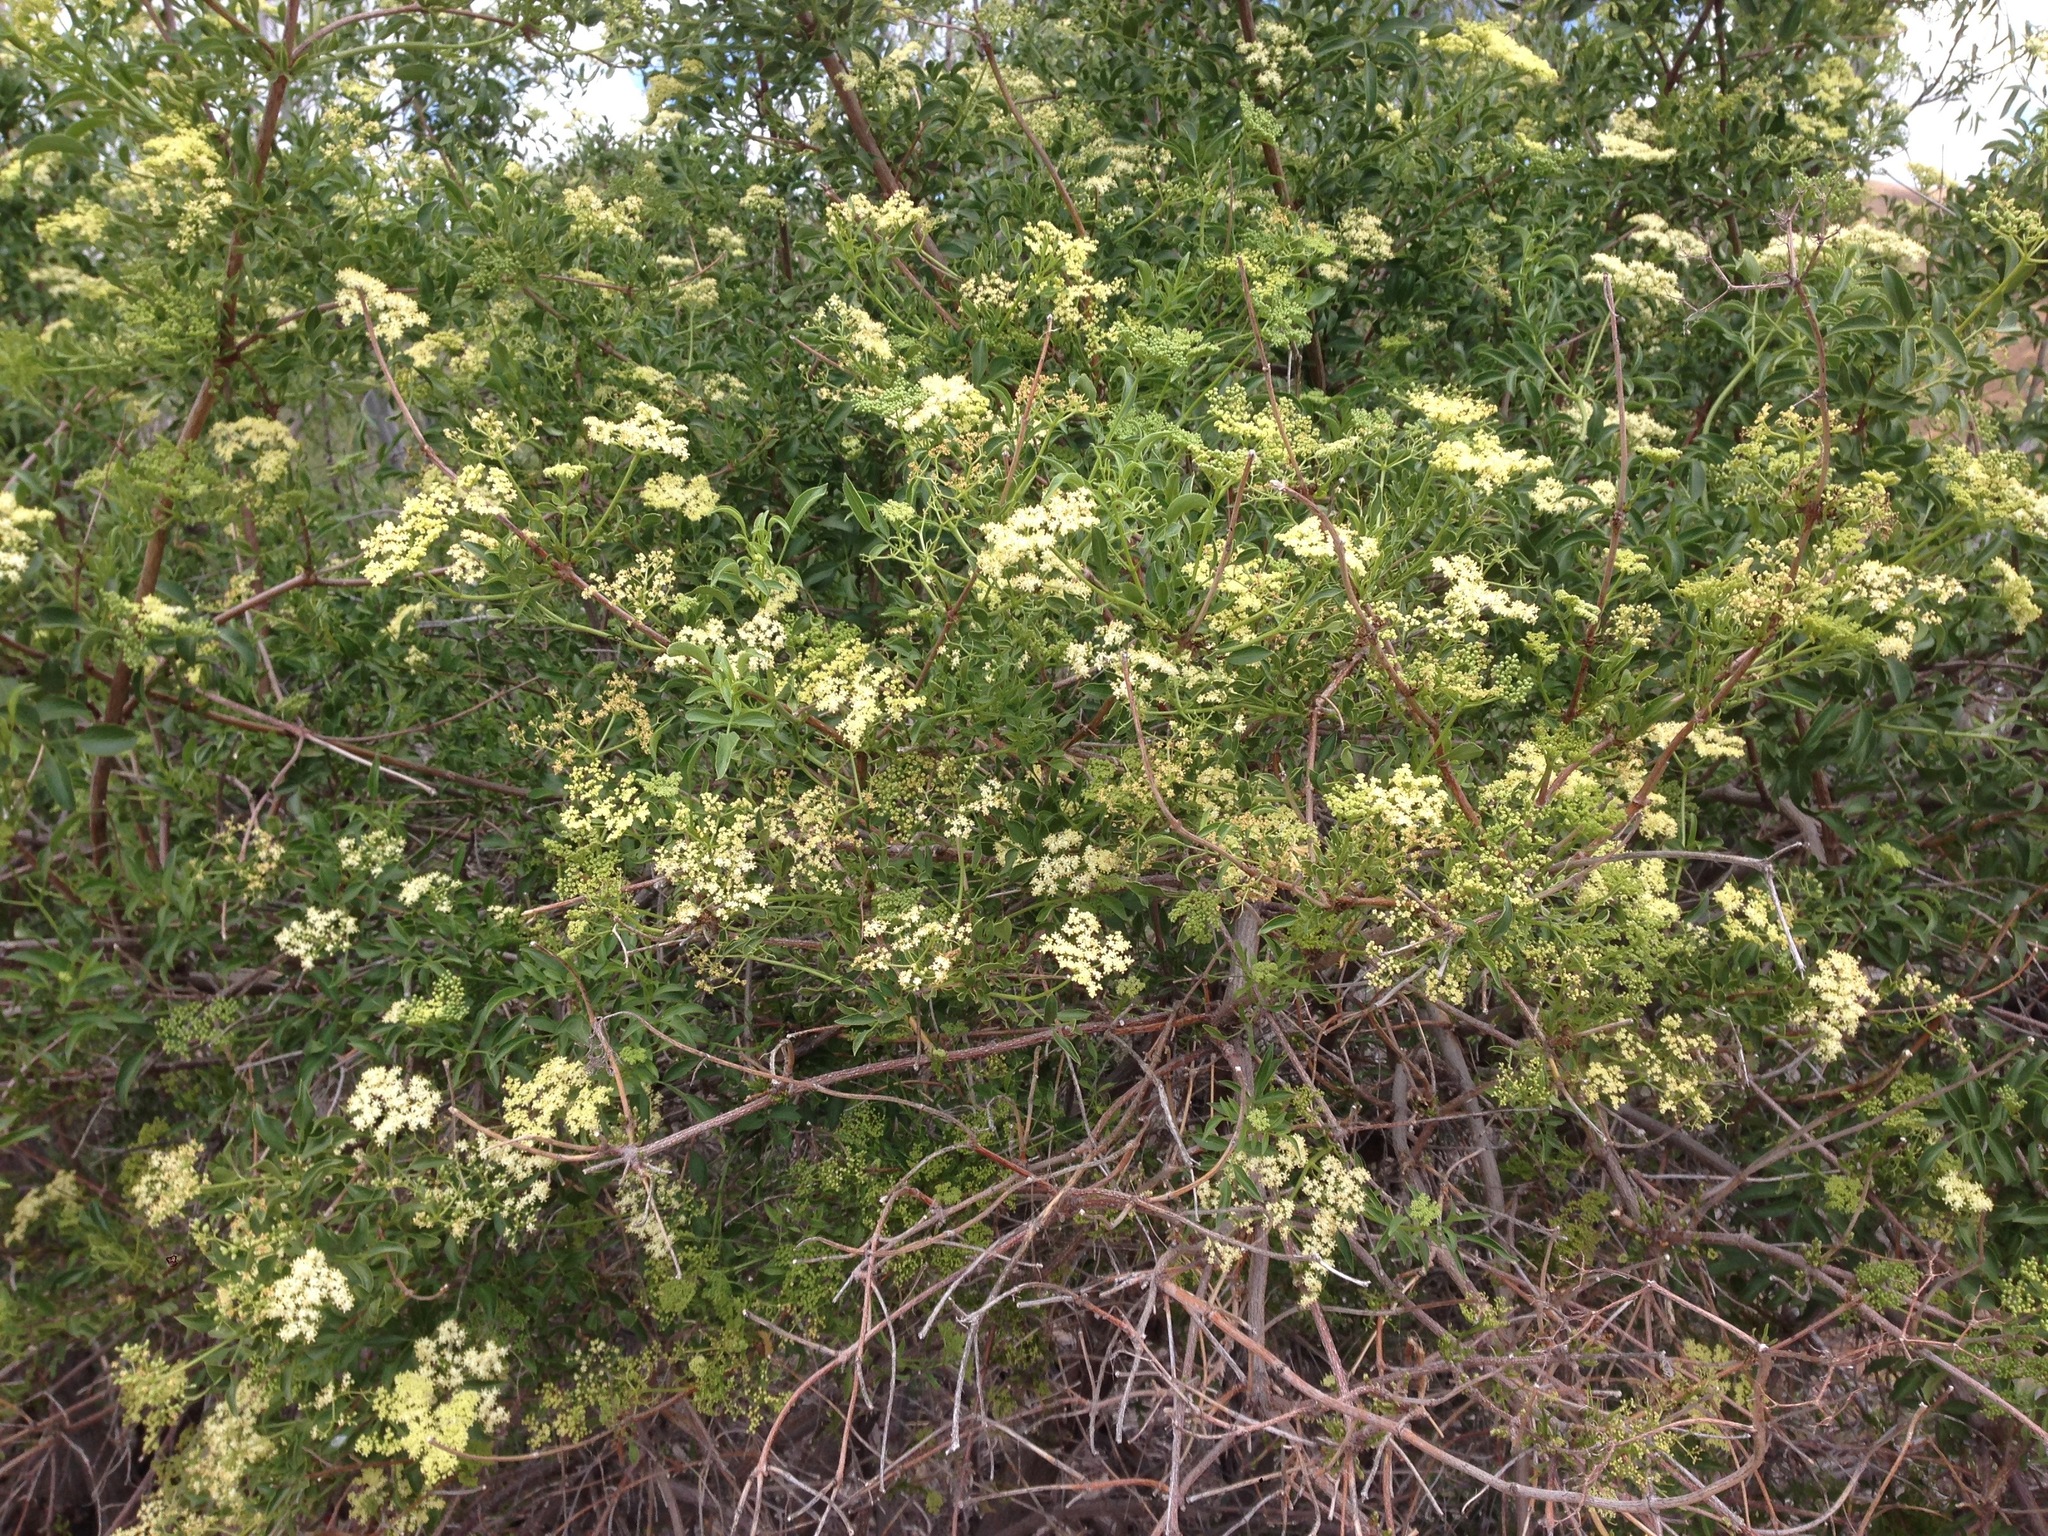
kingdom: Plantae
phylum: Tracheophyta
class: Magnoliopsida
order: Dipsacales
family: Viburnaceae
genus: Sambucus
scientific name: Sambucus cerulea
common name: Blue elder
